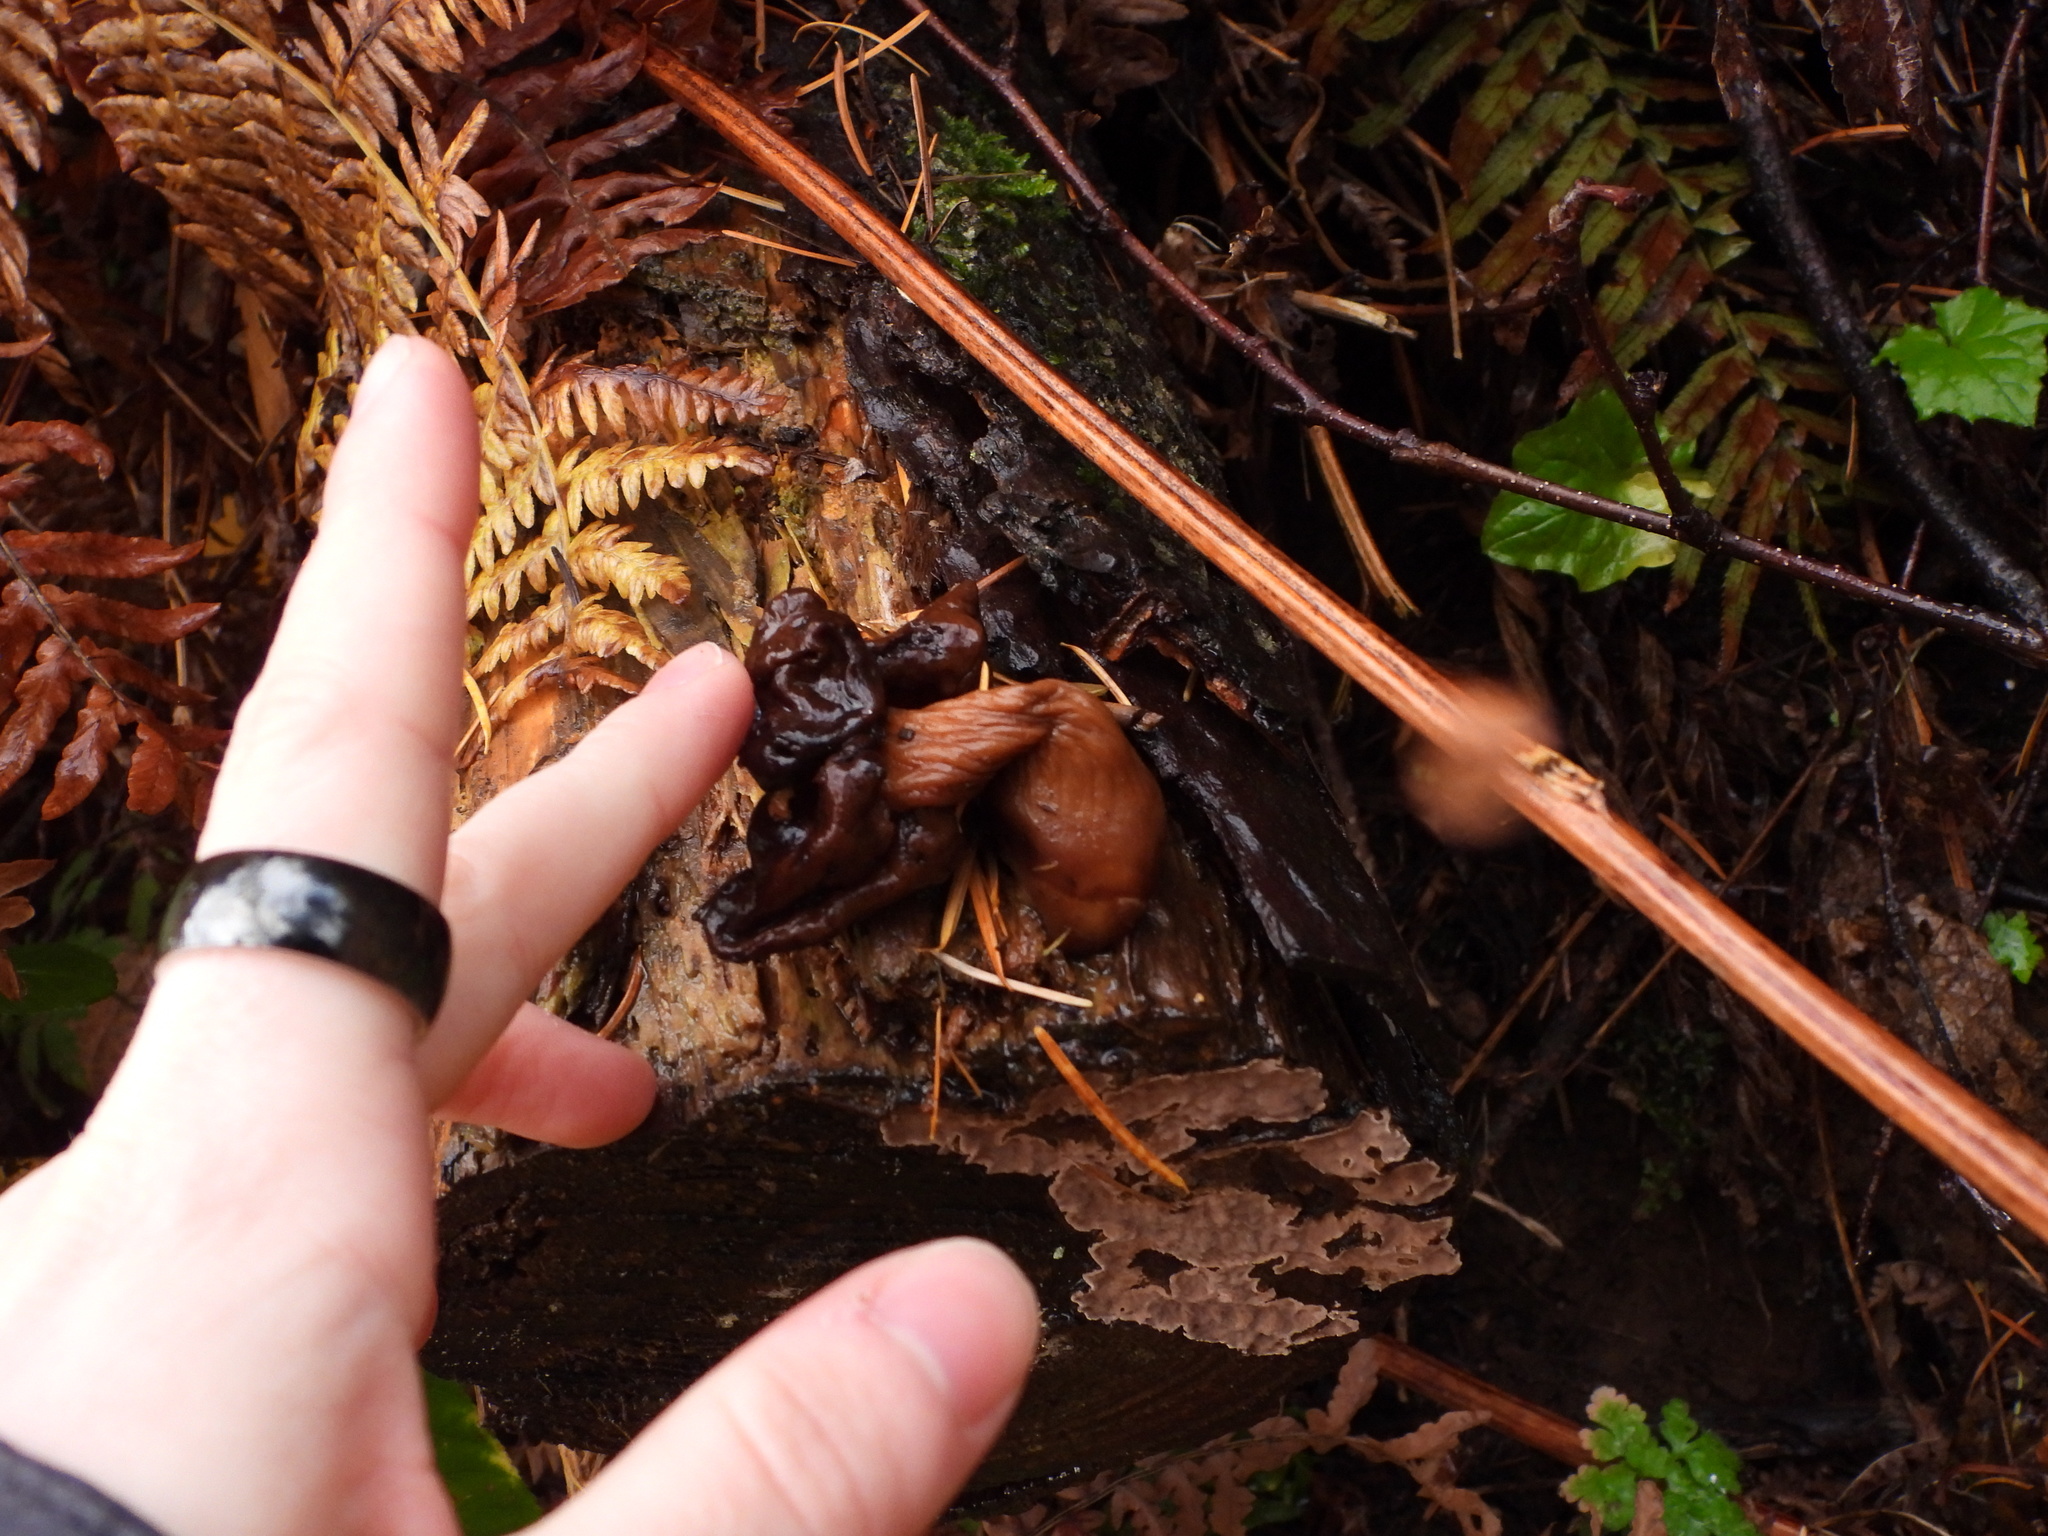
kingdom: Fungi
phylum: Ascomycota
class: Pezizomycetes
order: Pezizales
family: Discinaceae
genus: Gyromitra
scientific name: Gyromitra infula
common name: Pouched false morel
